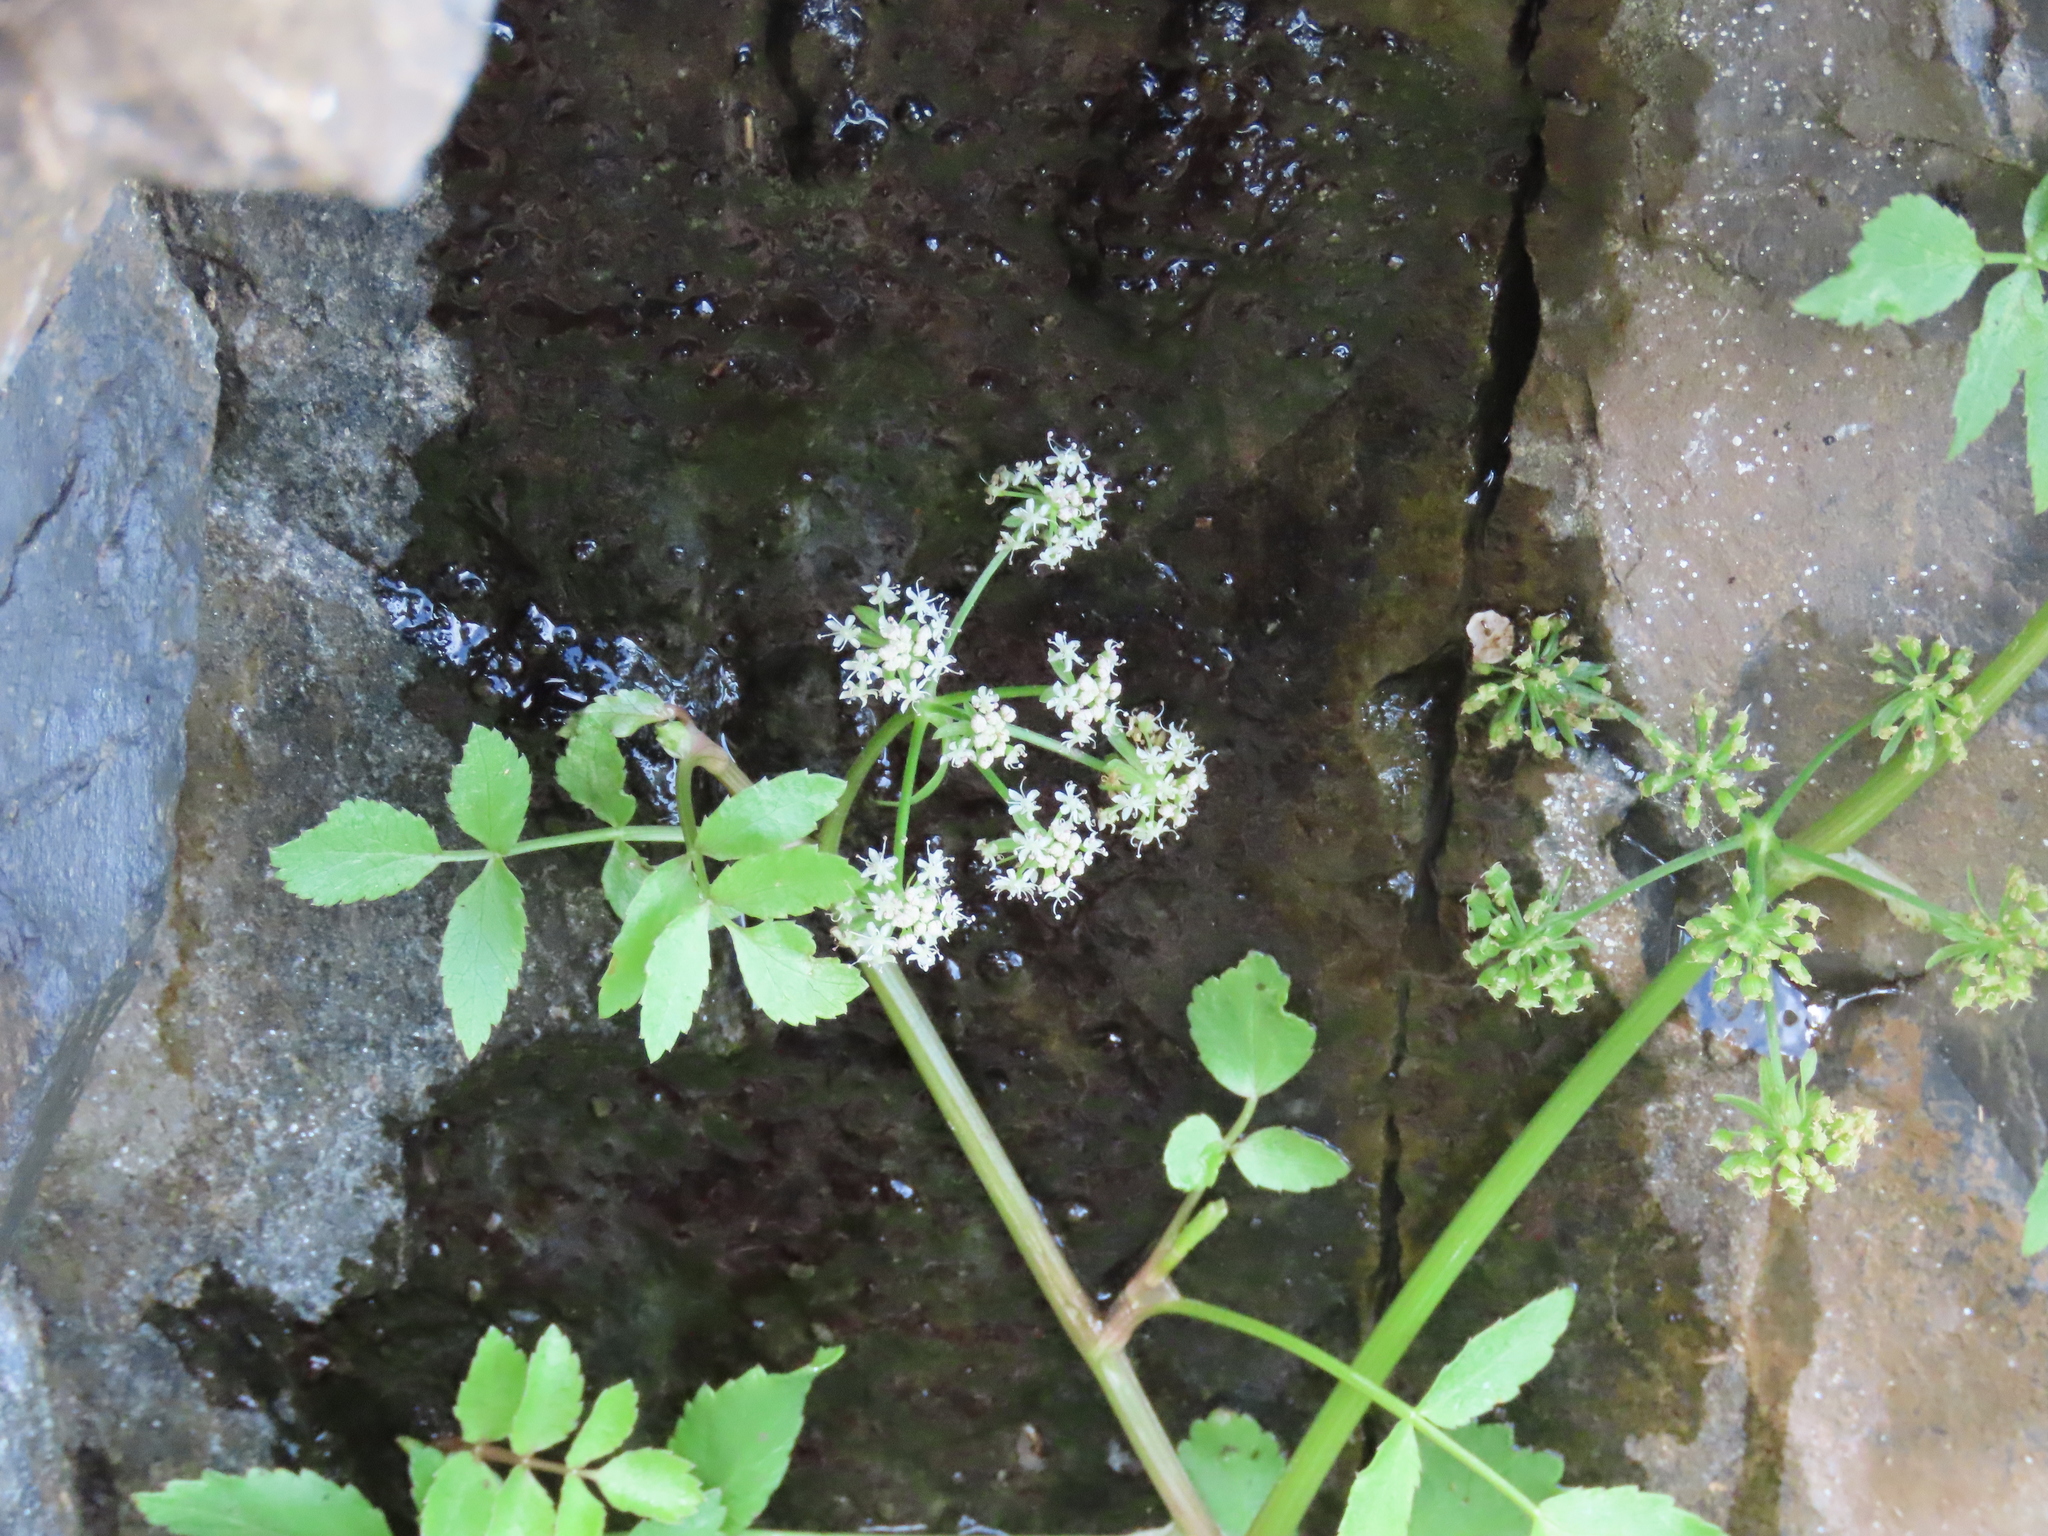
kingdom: Plantae
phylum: Tracheophyta
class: Magnoliopsida
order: Apiales
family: Apiaceae
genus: Apium
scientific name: Apium prostratum
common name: Prostrate marshwort
